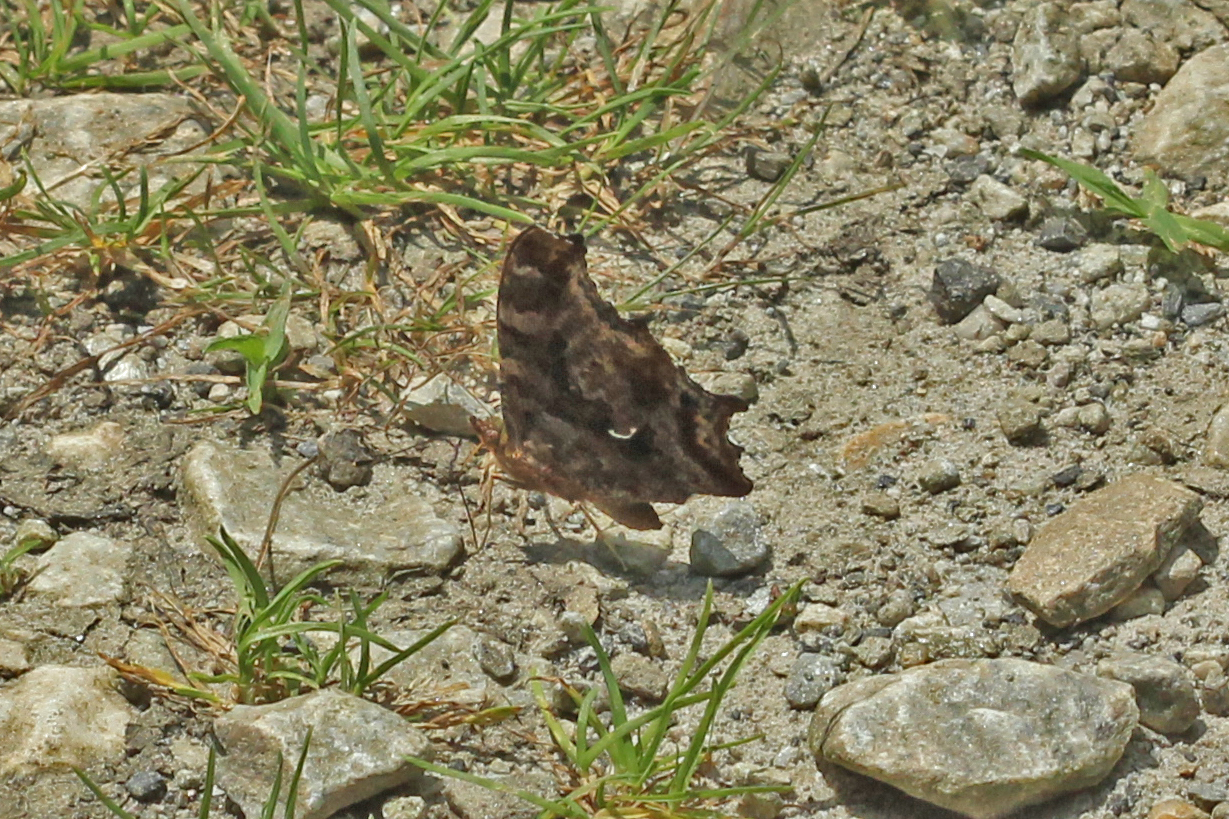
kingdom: Animalia
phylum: Arthropoda
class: Insecta
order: Lepidoptera
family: Nymphalidae
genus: Polygonia
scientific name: Polygonia comma
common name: Eastern comma
